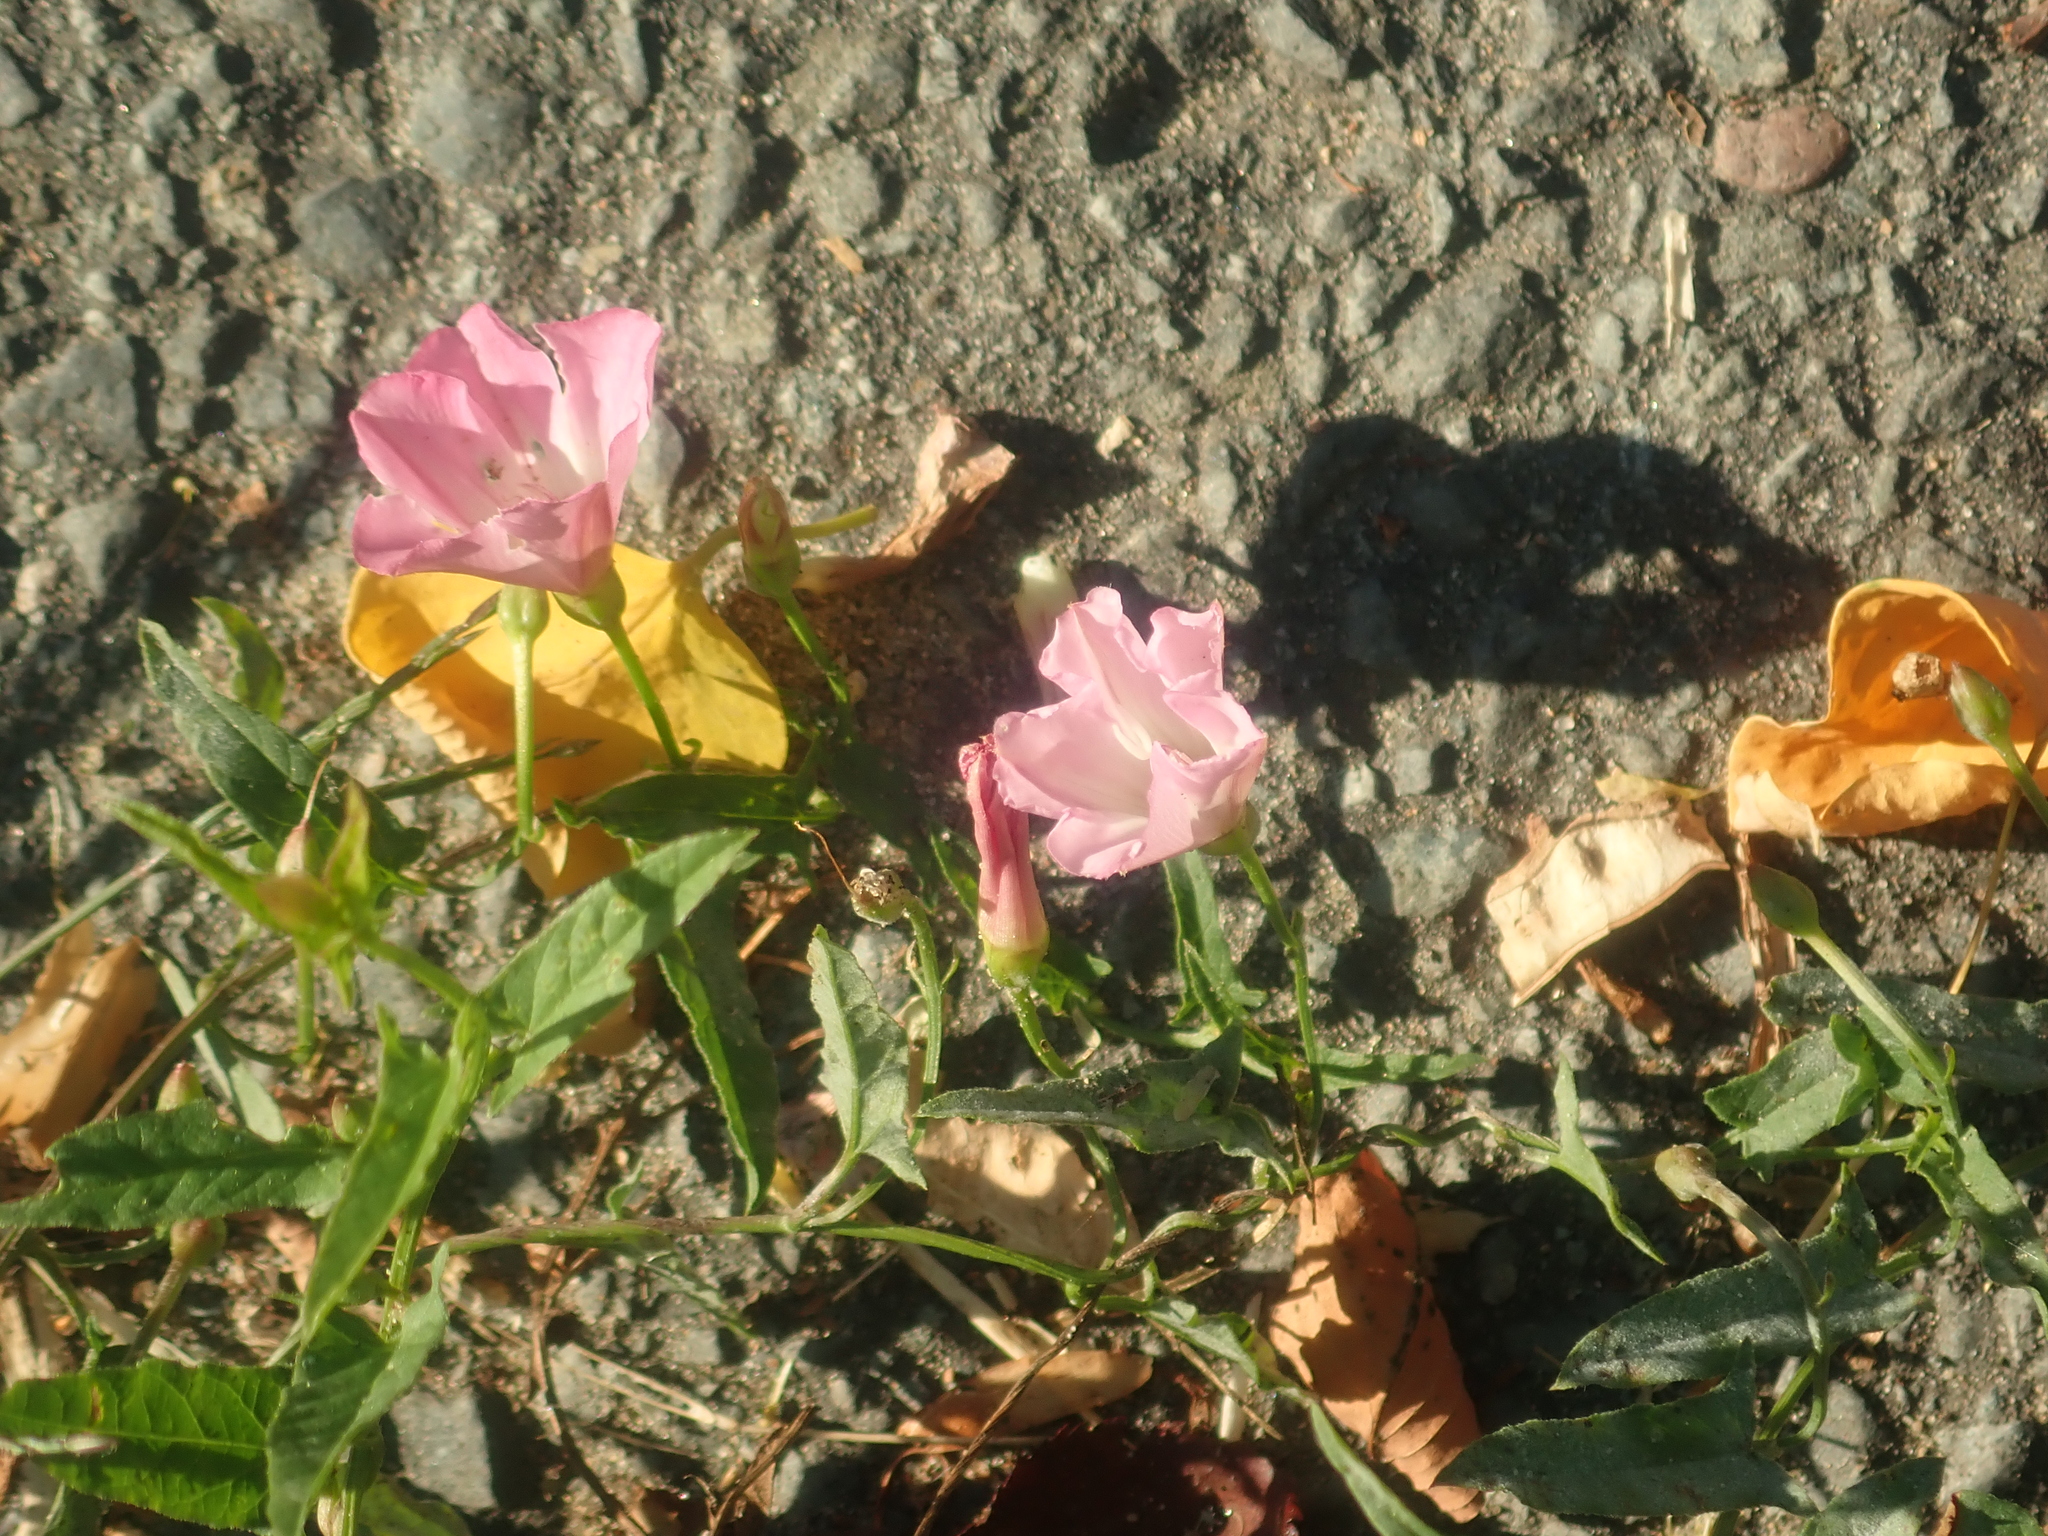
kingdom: Plantae
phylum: Tracheophyta
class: Magnoliopsida
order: Solanales
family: Convolvulaceae
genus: Convolvulus
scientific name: Convolvulus arvensis
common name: Field bindweed
